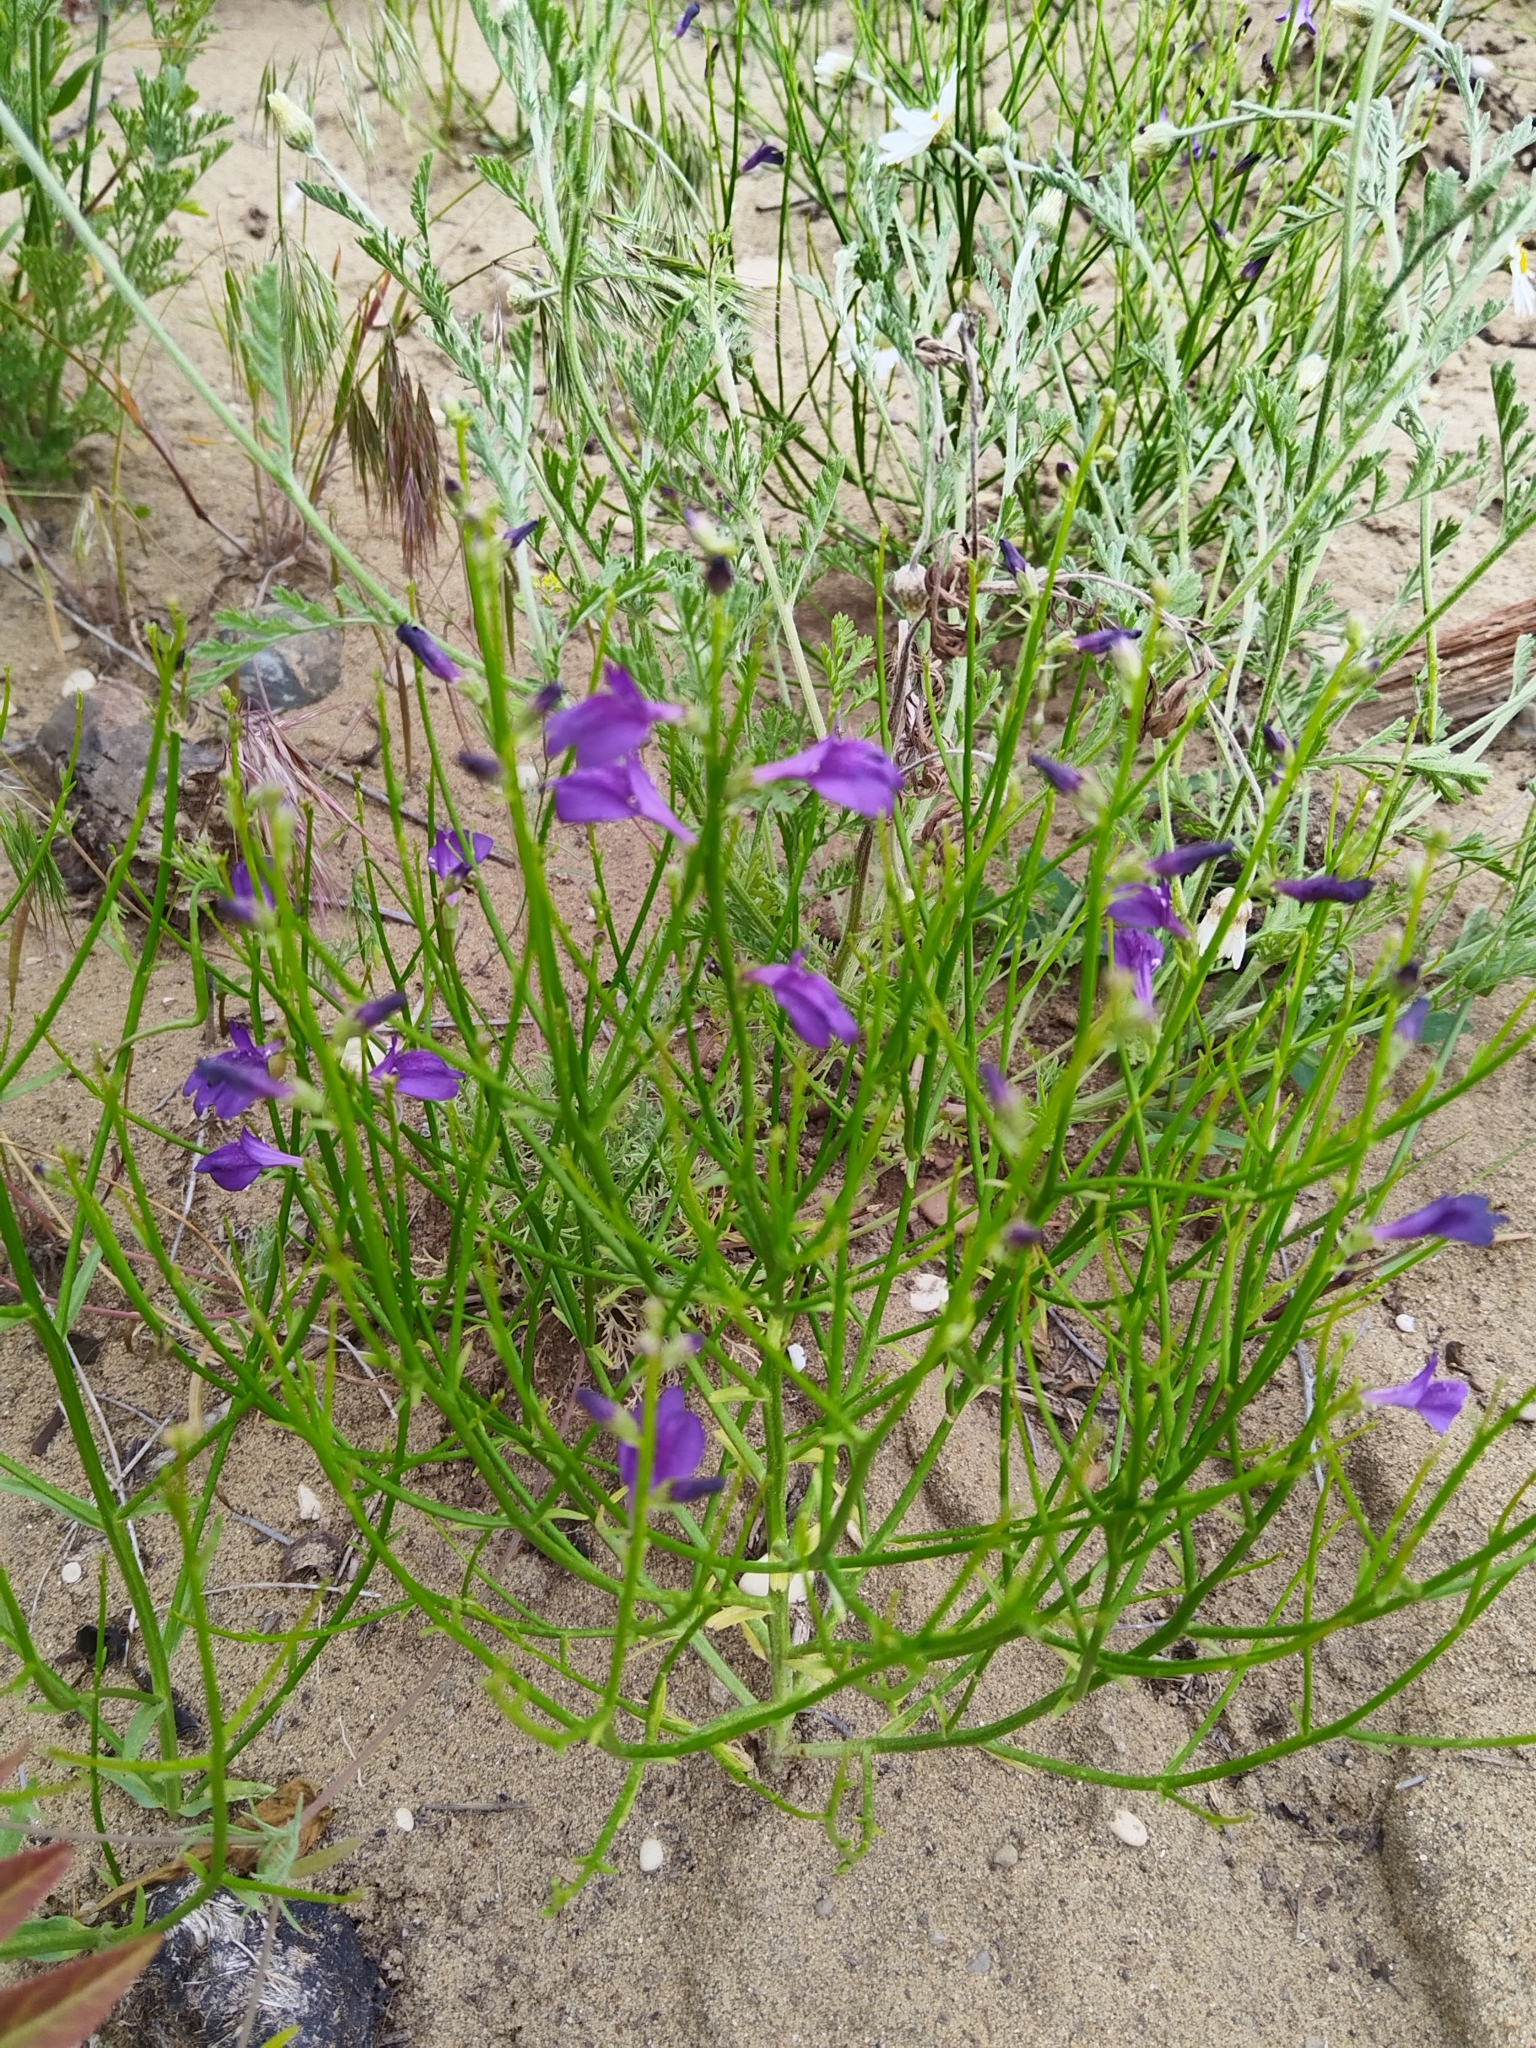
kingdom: Plantae
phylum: Tracheophyta
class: Magnoliopsida
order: Lamiales
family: Mazaceae
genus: Dodartia
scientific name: Dodartia orientalis
